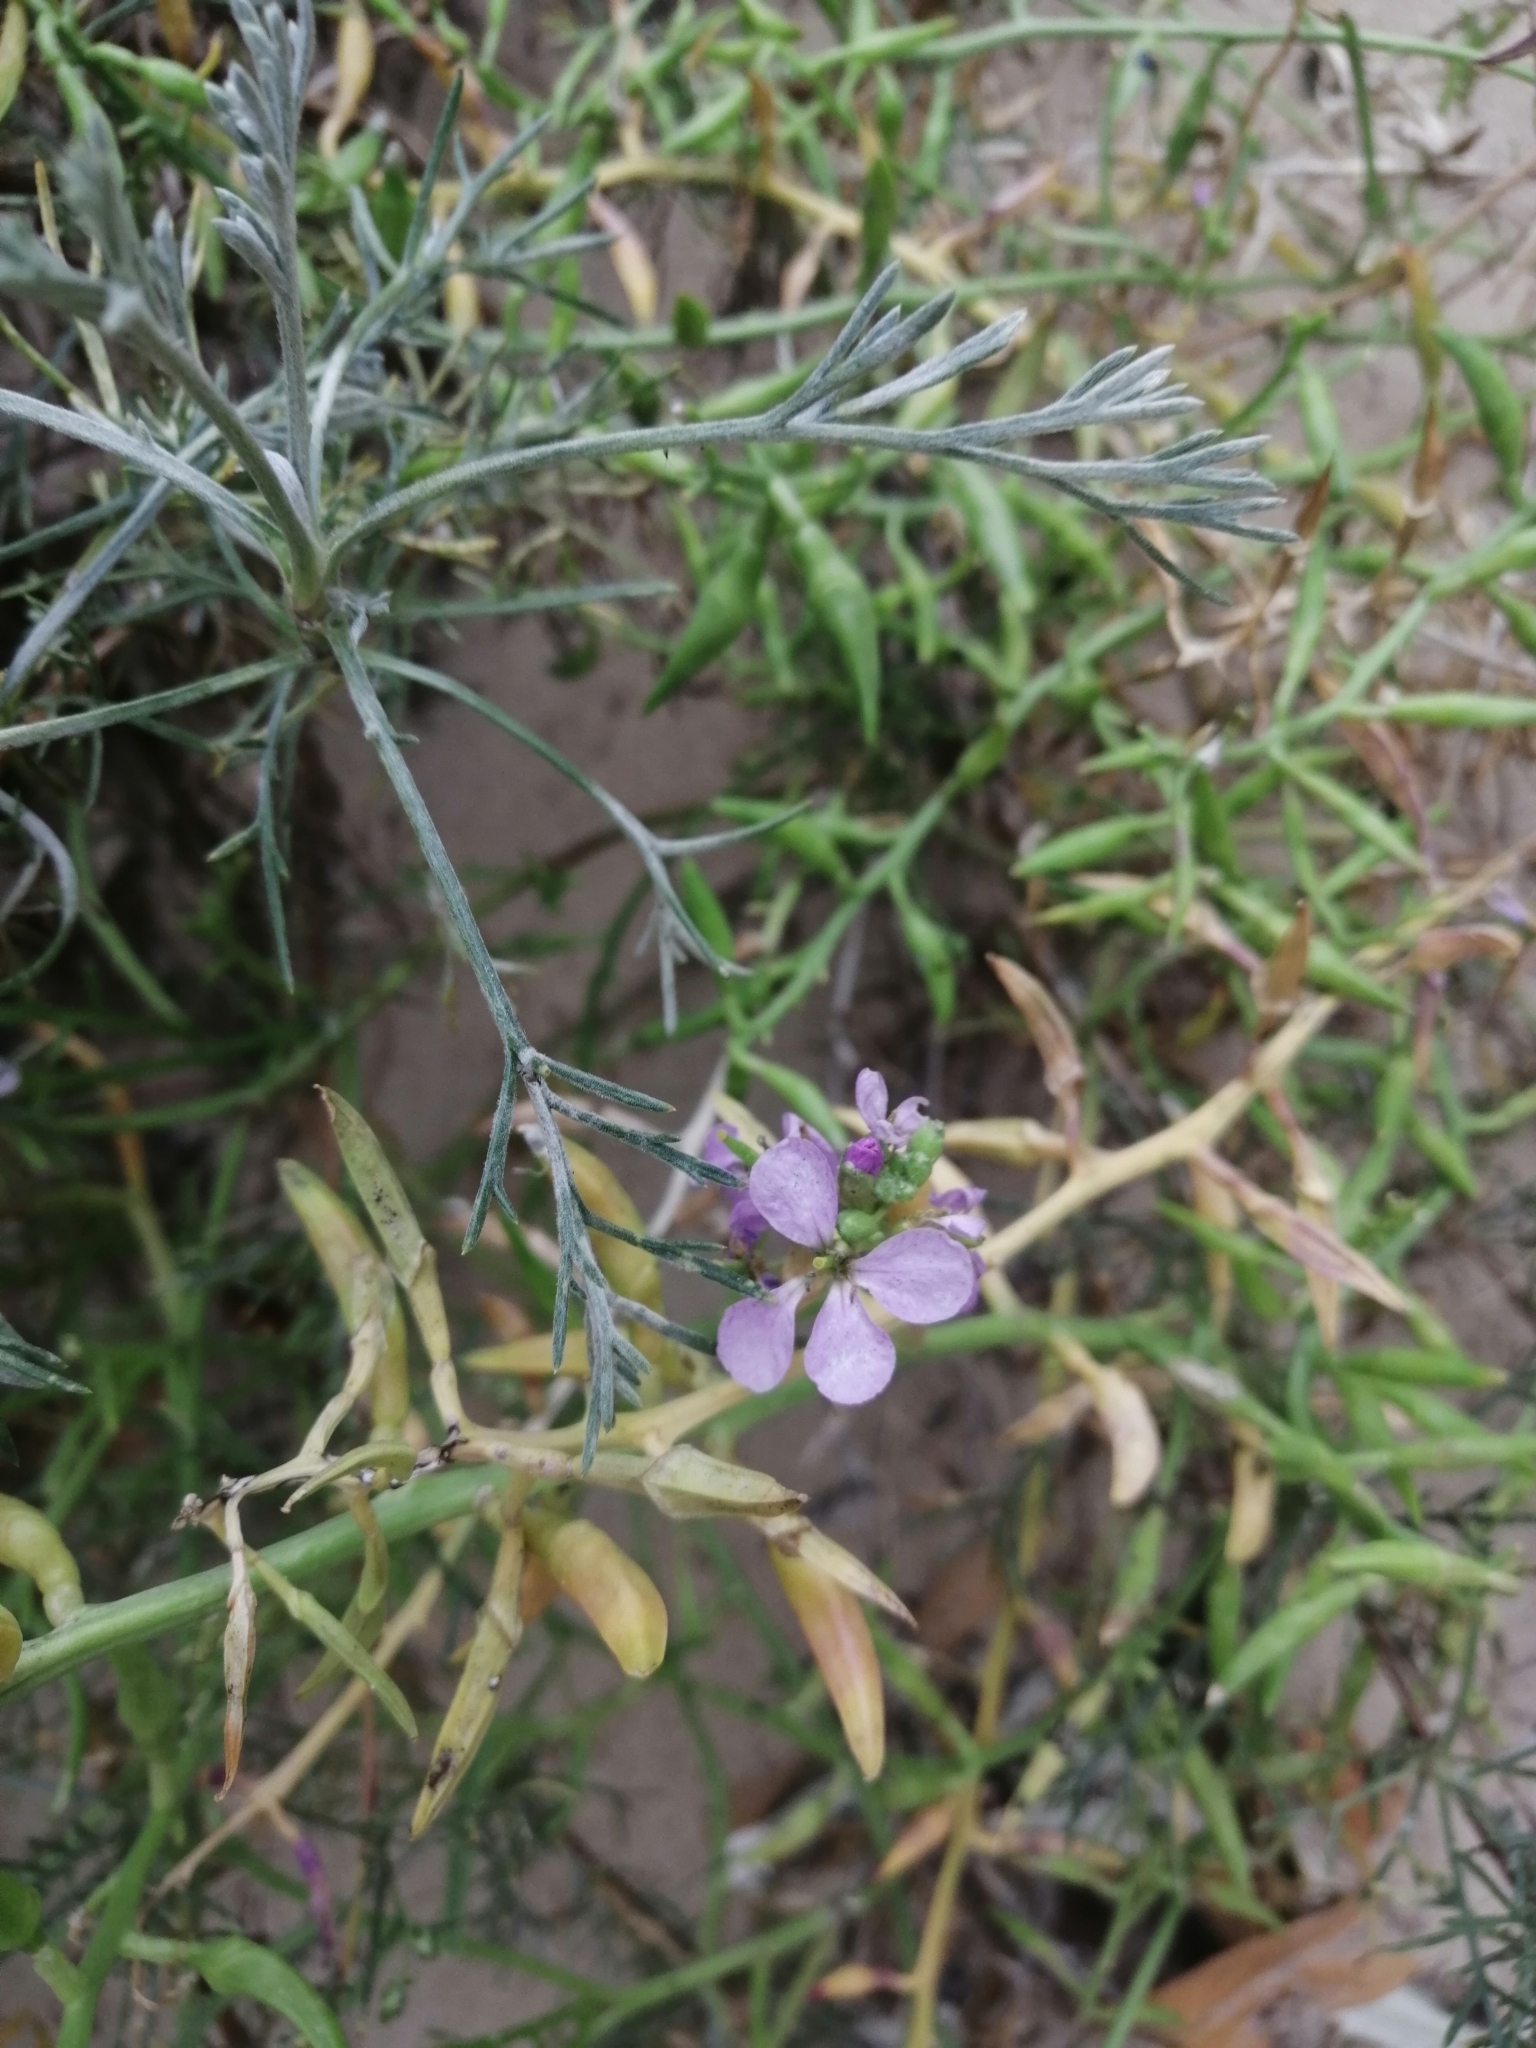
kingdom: Plantae
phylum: Tracheophyta
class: Magnoliopsida
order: Brassicales
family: Brassicaceae
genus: Cakile
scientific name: Cakile maritima
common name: Sea rocket
